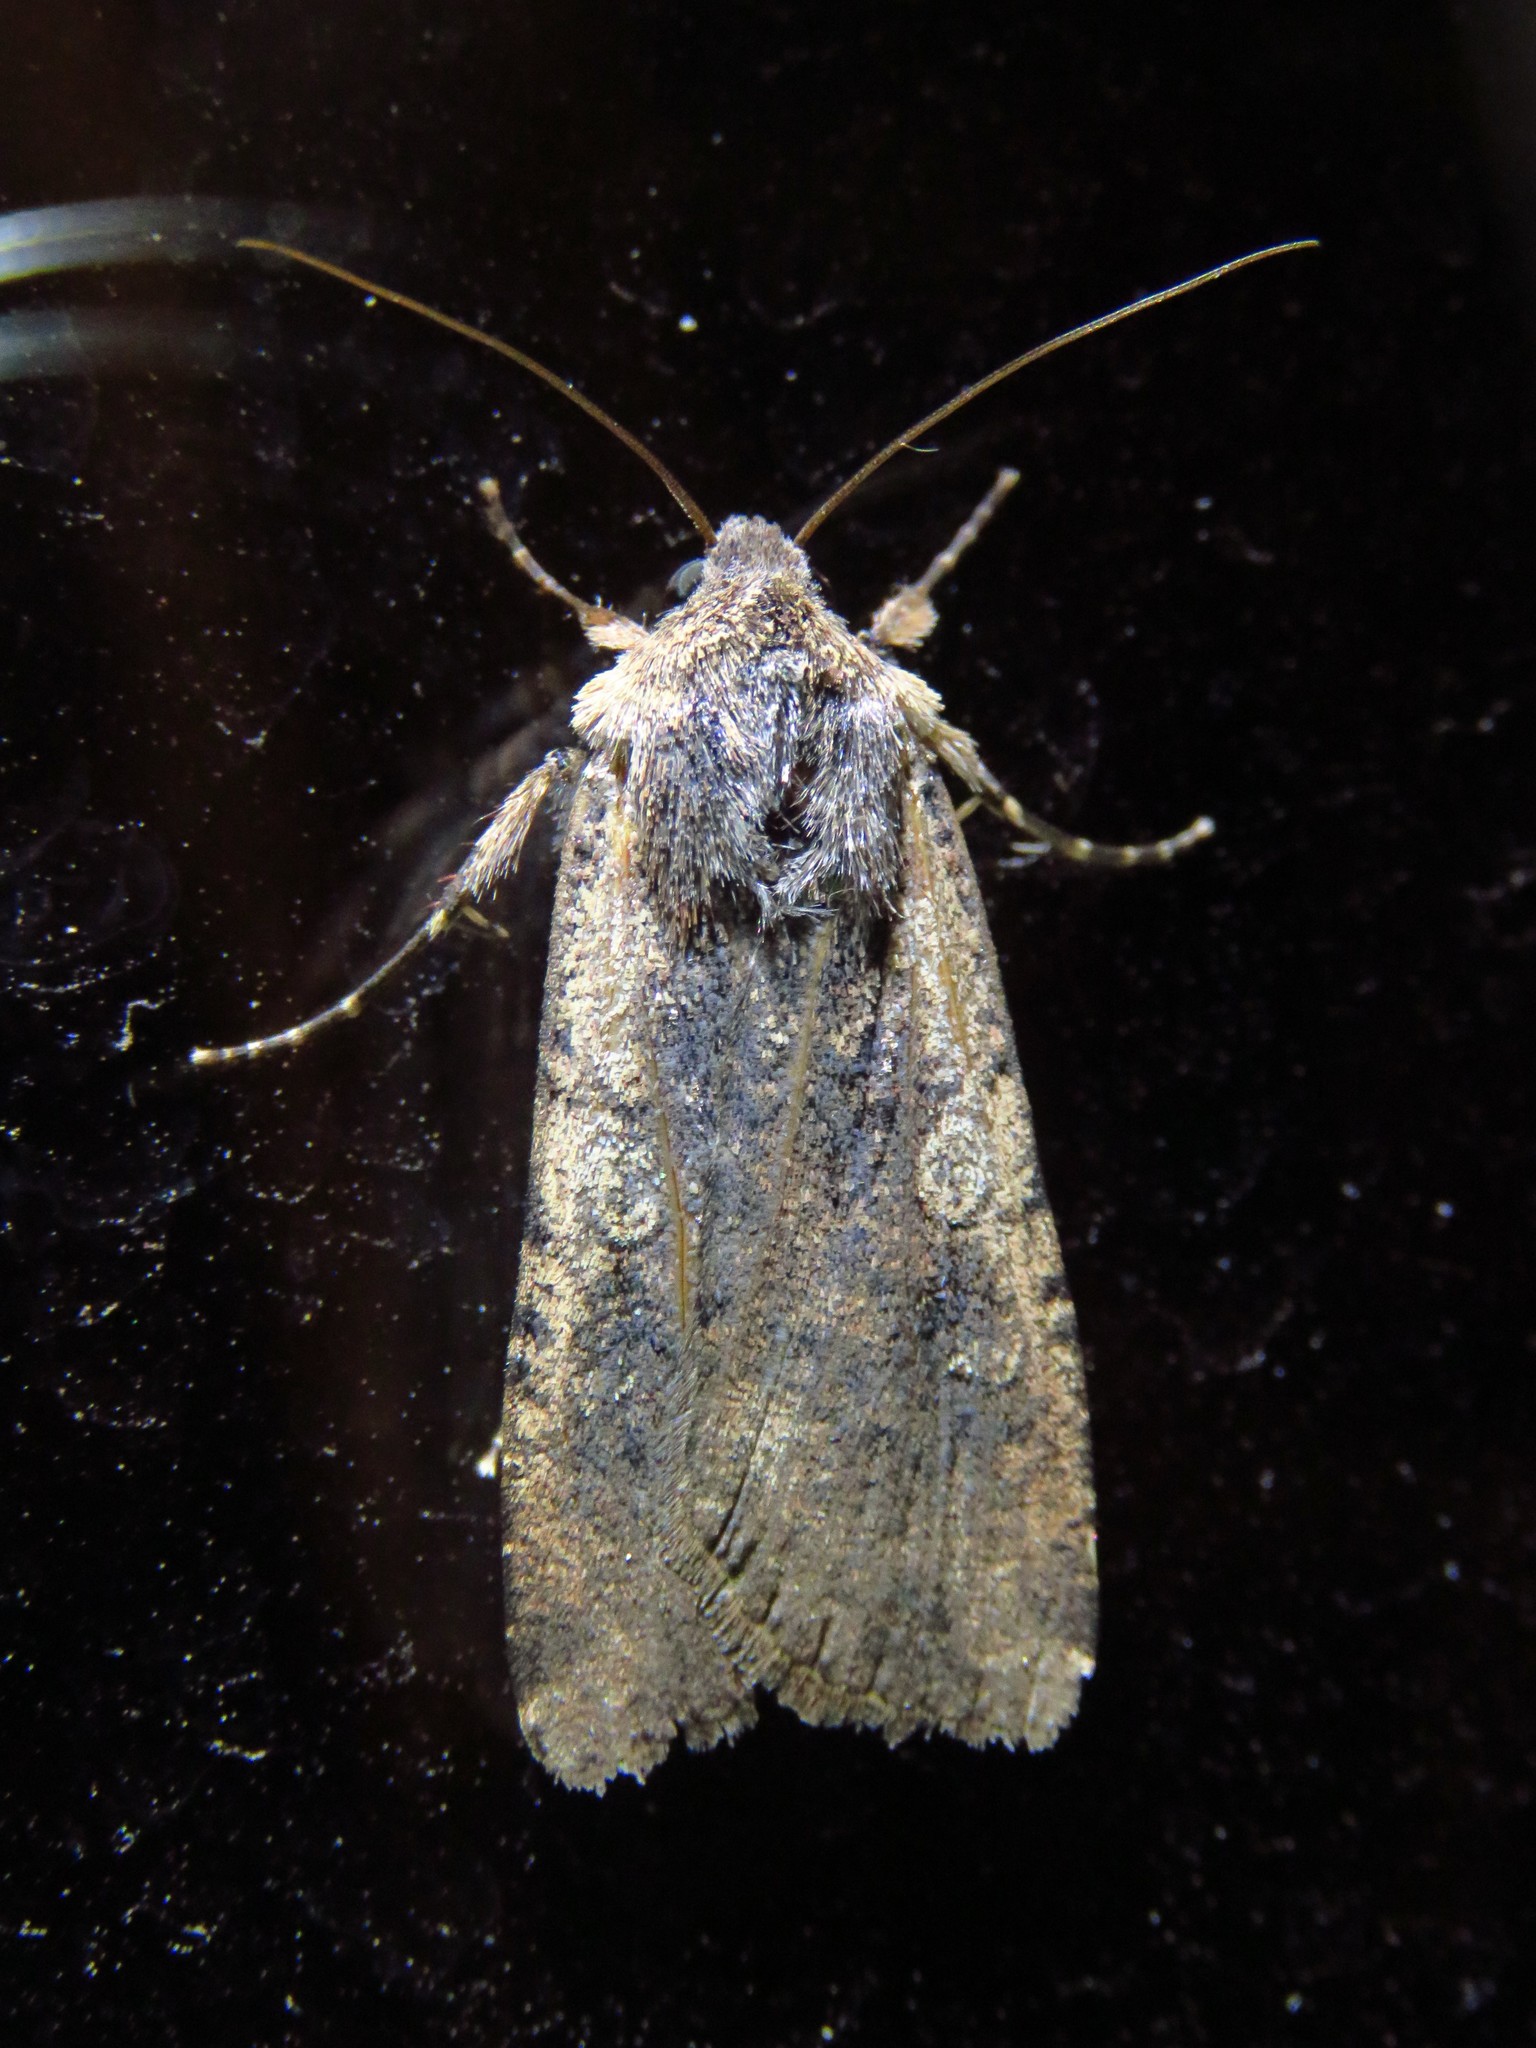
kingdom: Animalia
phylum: Arthropoda
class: Insecta
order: Lepidoptera
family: Noctuidae
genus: Peridroma
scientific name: Peridroma saucia
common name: Pearly underwing
